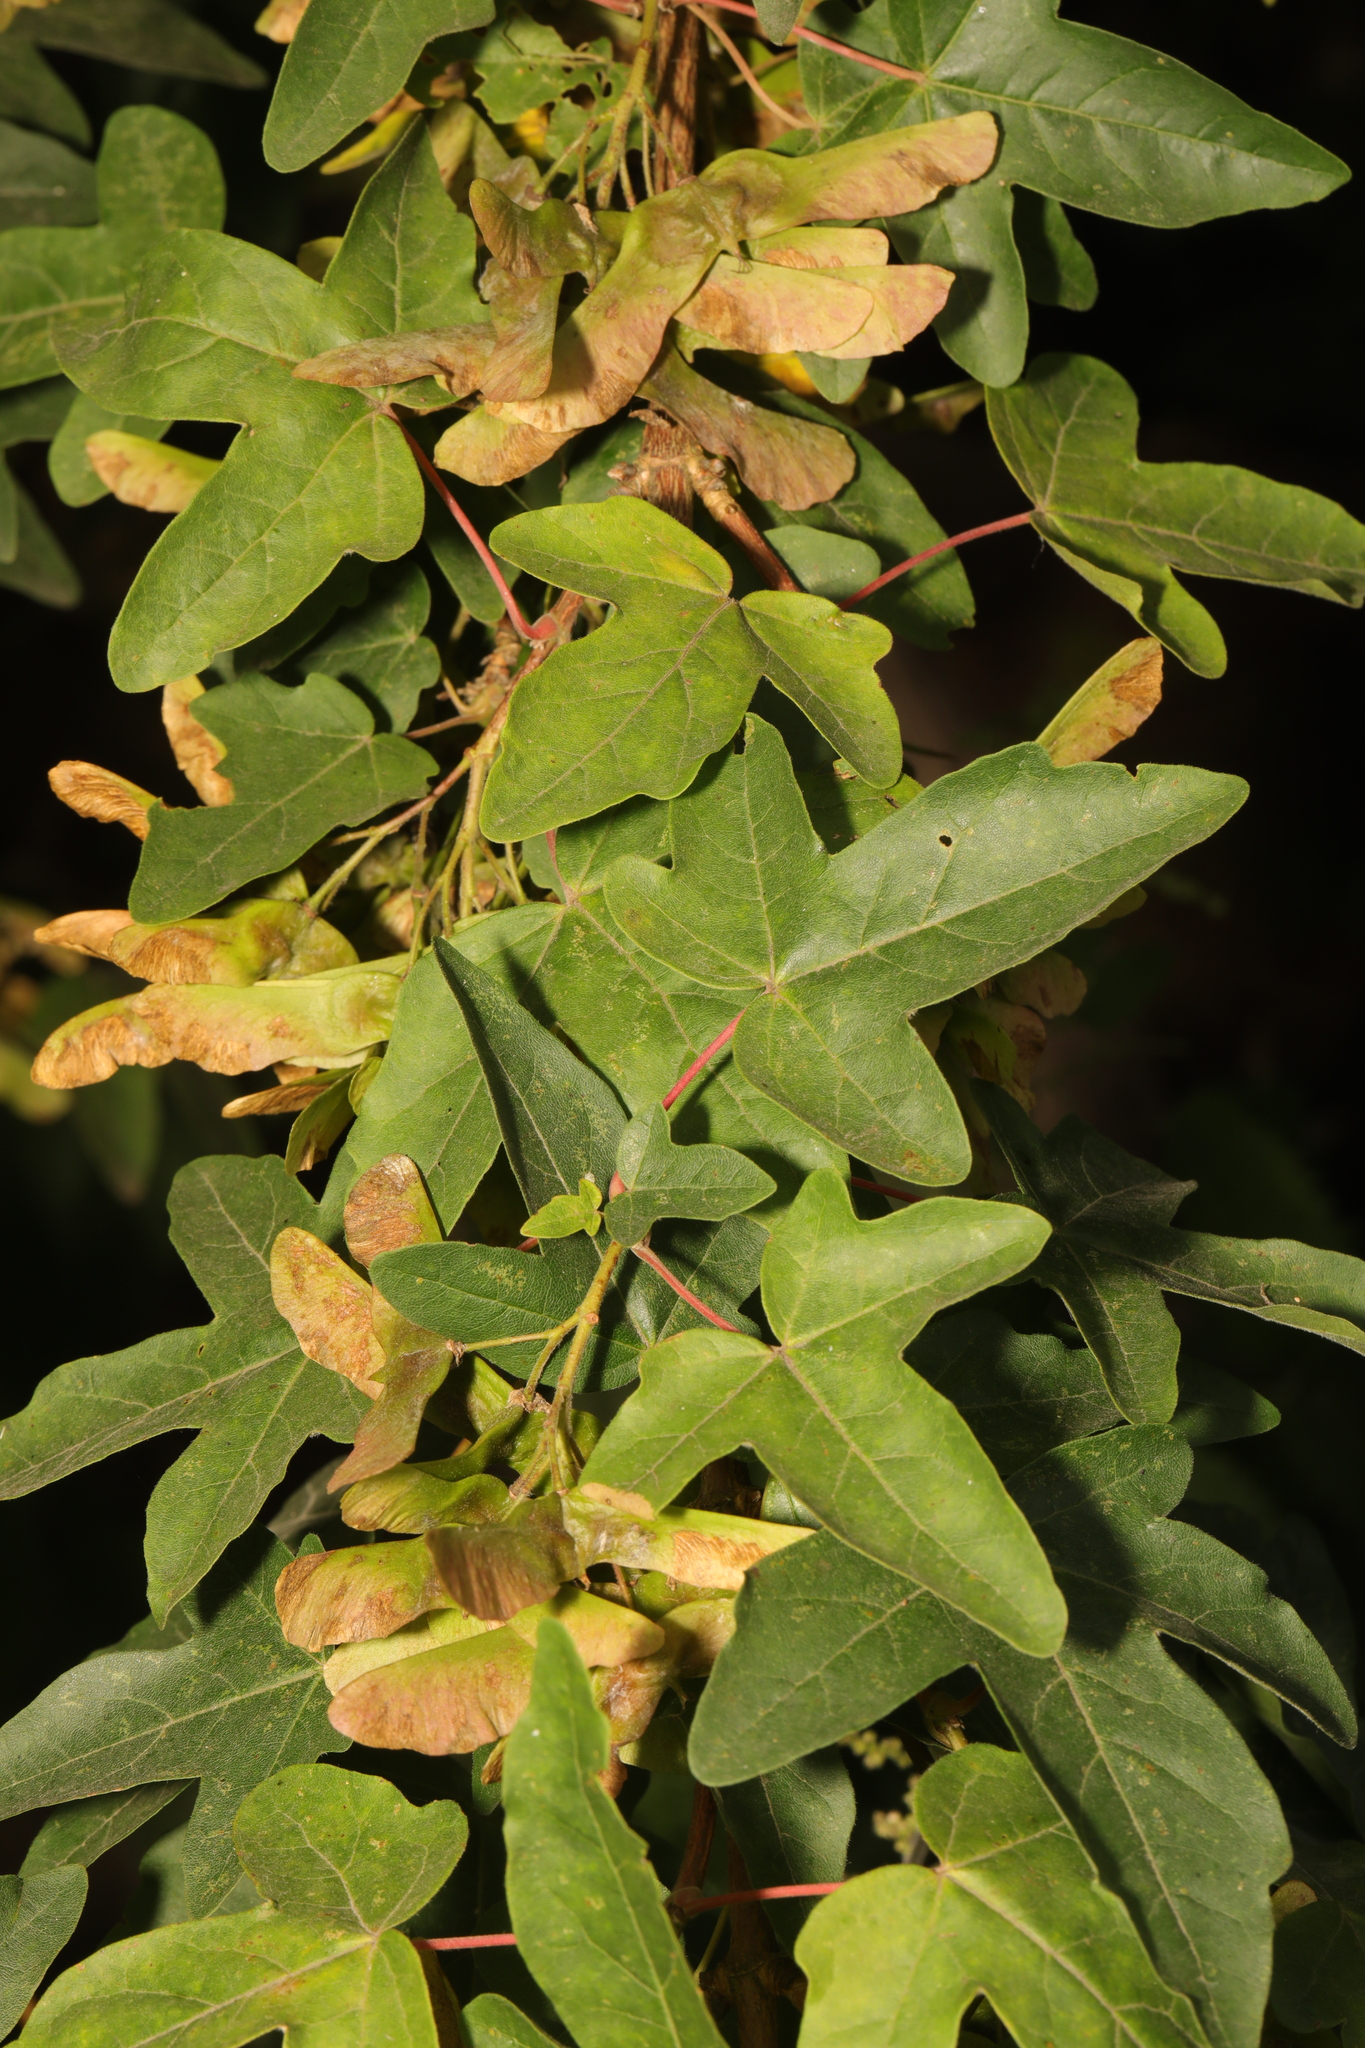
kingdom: Plantae
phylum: Tracheophyta
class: Magnoliopsida
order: Sapindales
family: Sapindaceae
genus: Acer
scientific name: Acer campestre
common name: Field maple
